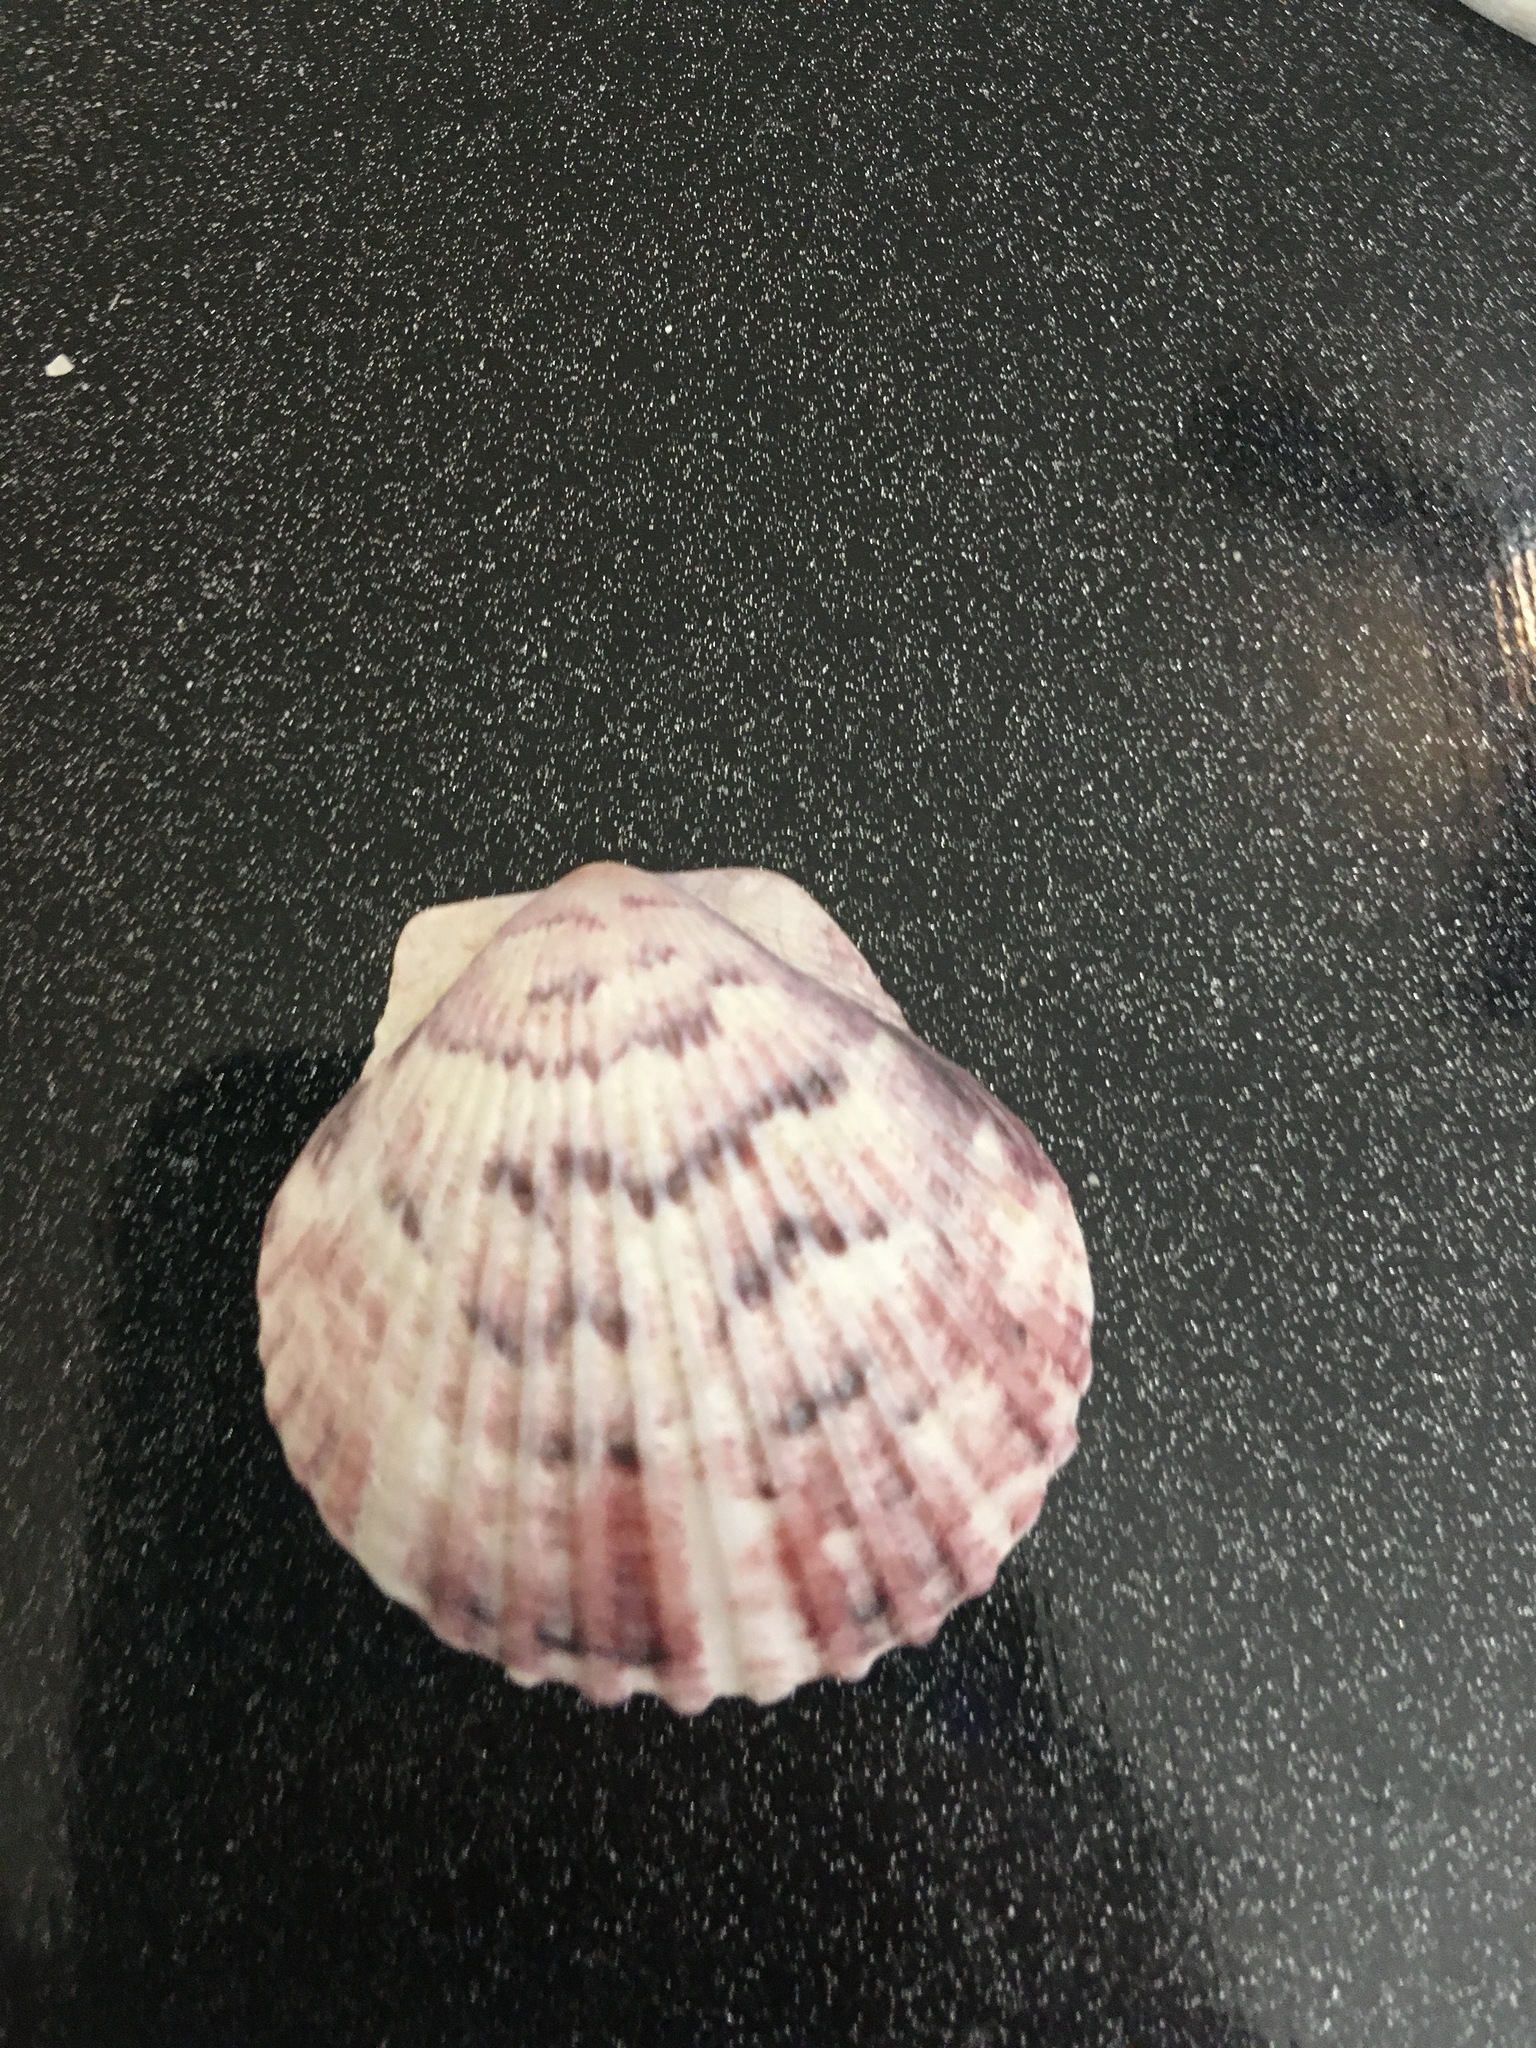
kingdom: Animalia
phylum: Mollusca
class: Bivalvia
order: Pectinida
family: Pectinidae
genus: Argopecten
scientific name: Argopecten gibbus
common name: Atlantic calico scallop
